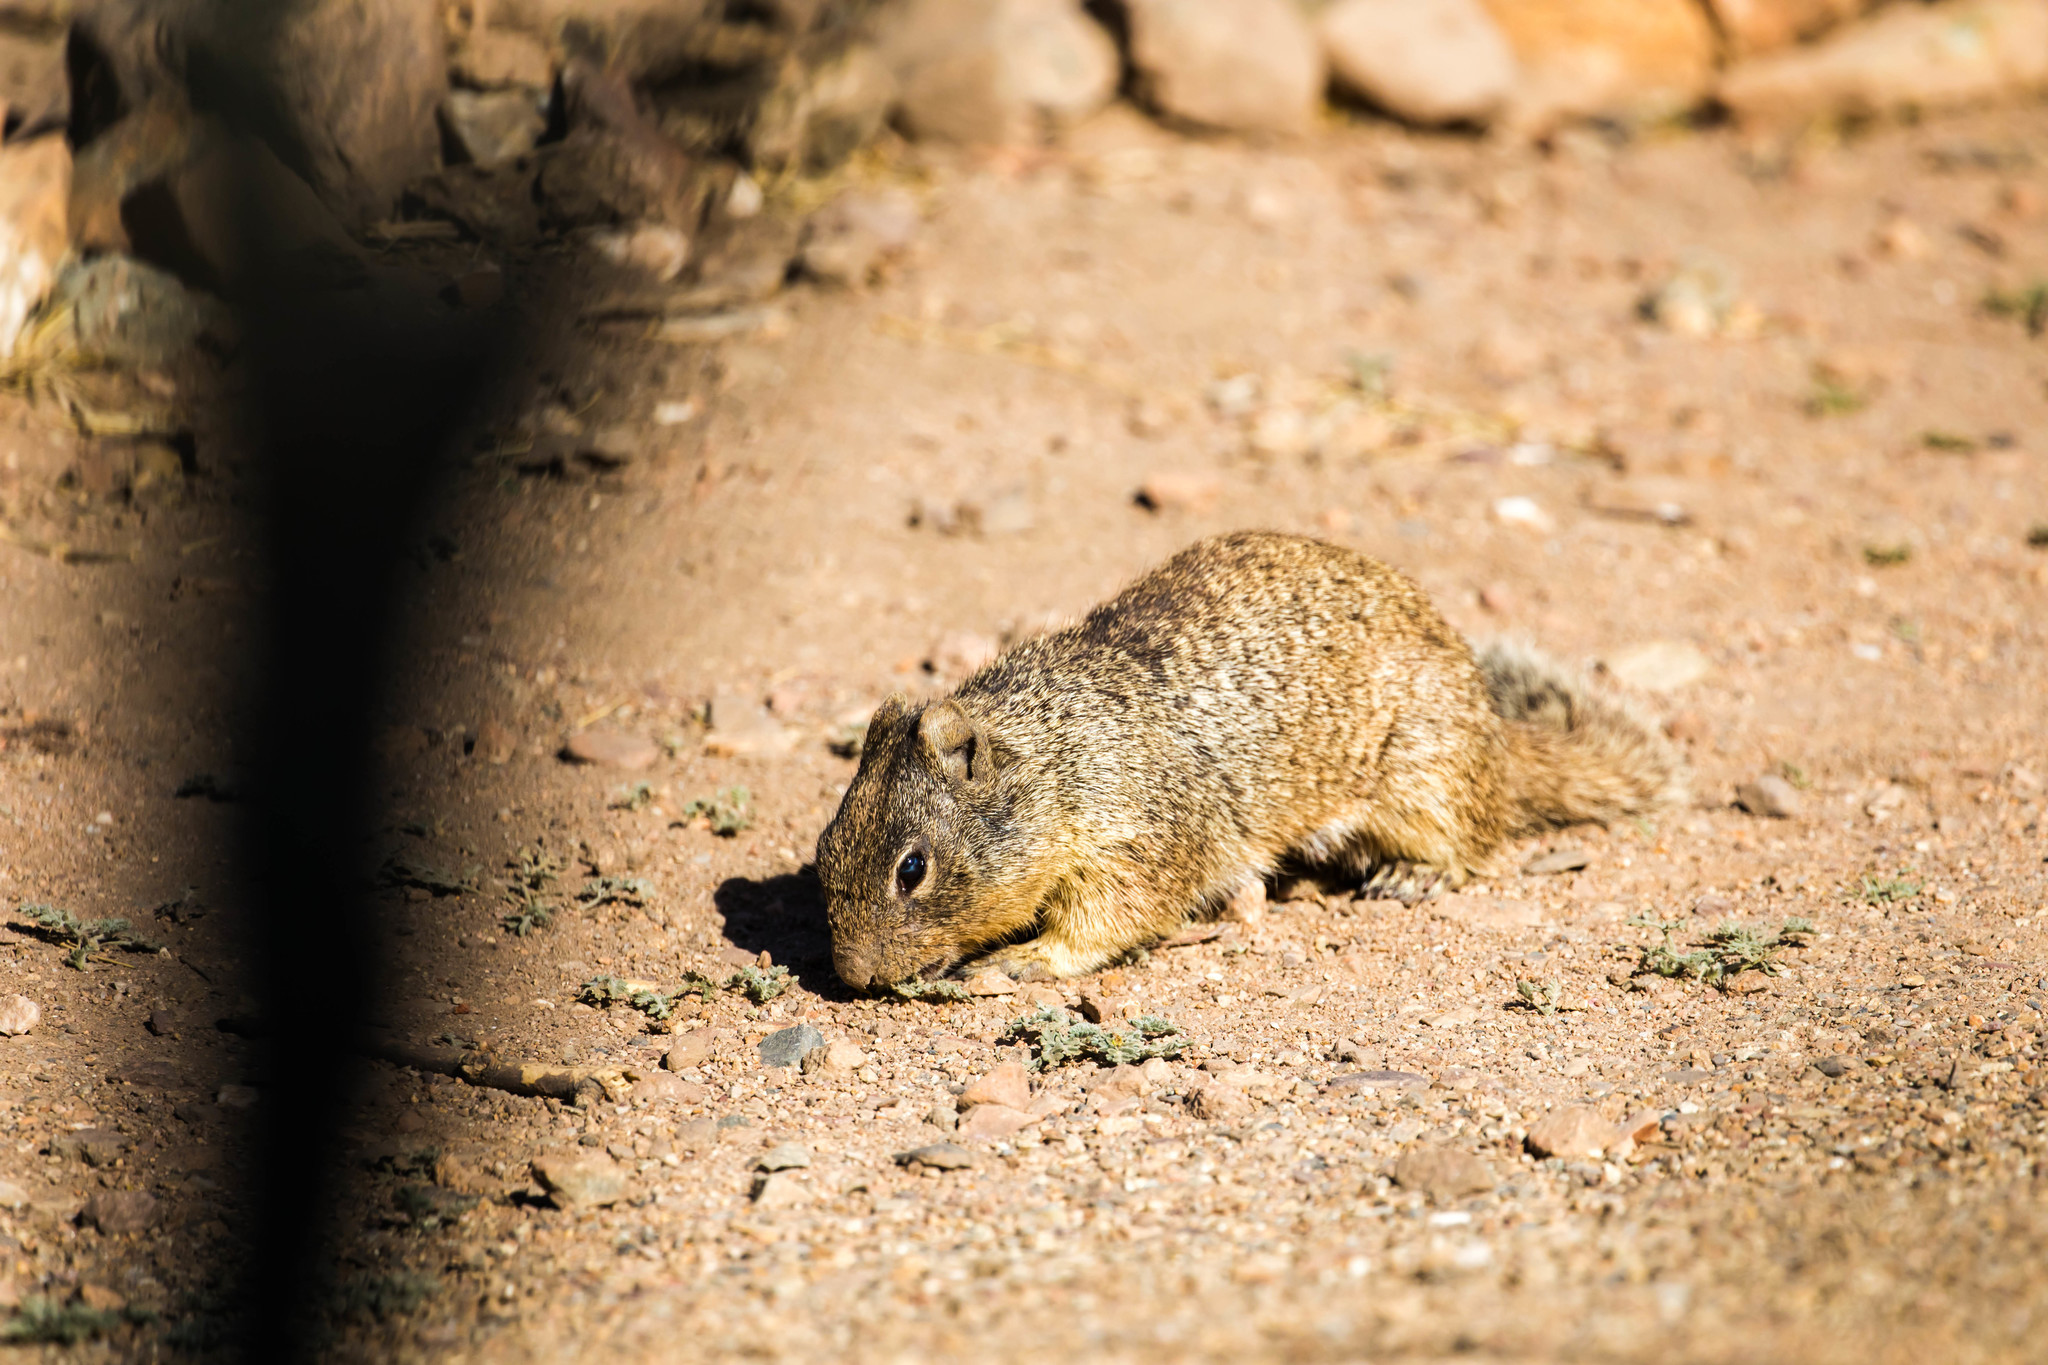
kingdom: Animalia
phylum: Chordata
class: Mammalia
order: Rodentia
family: Sciuridae
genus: Otospermophilus
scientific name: Otospermophilus variegatus
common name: Rock squirrel
